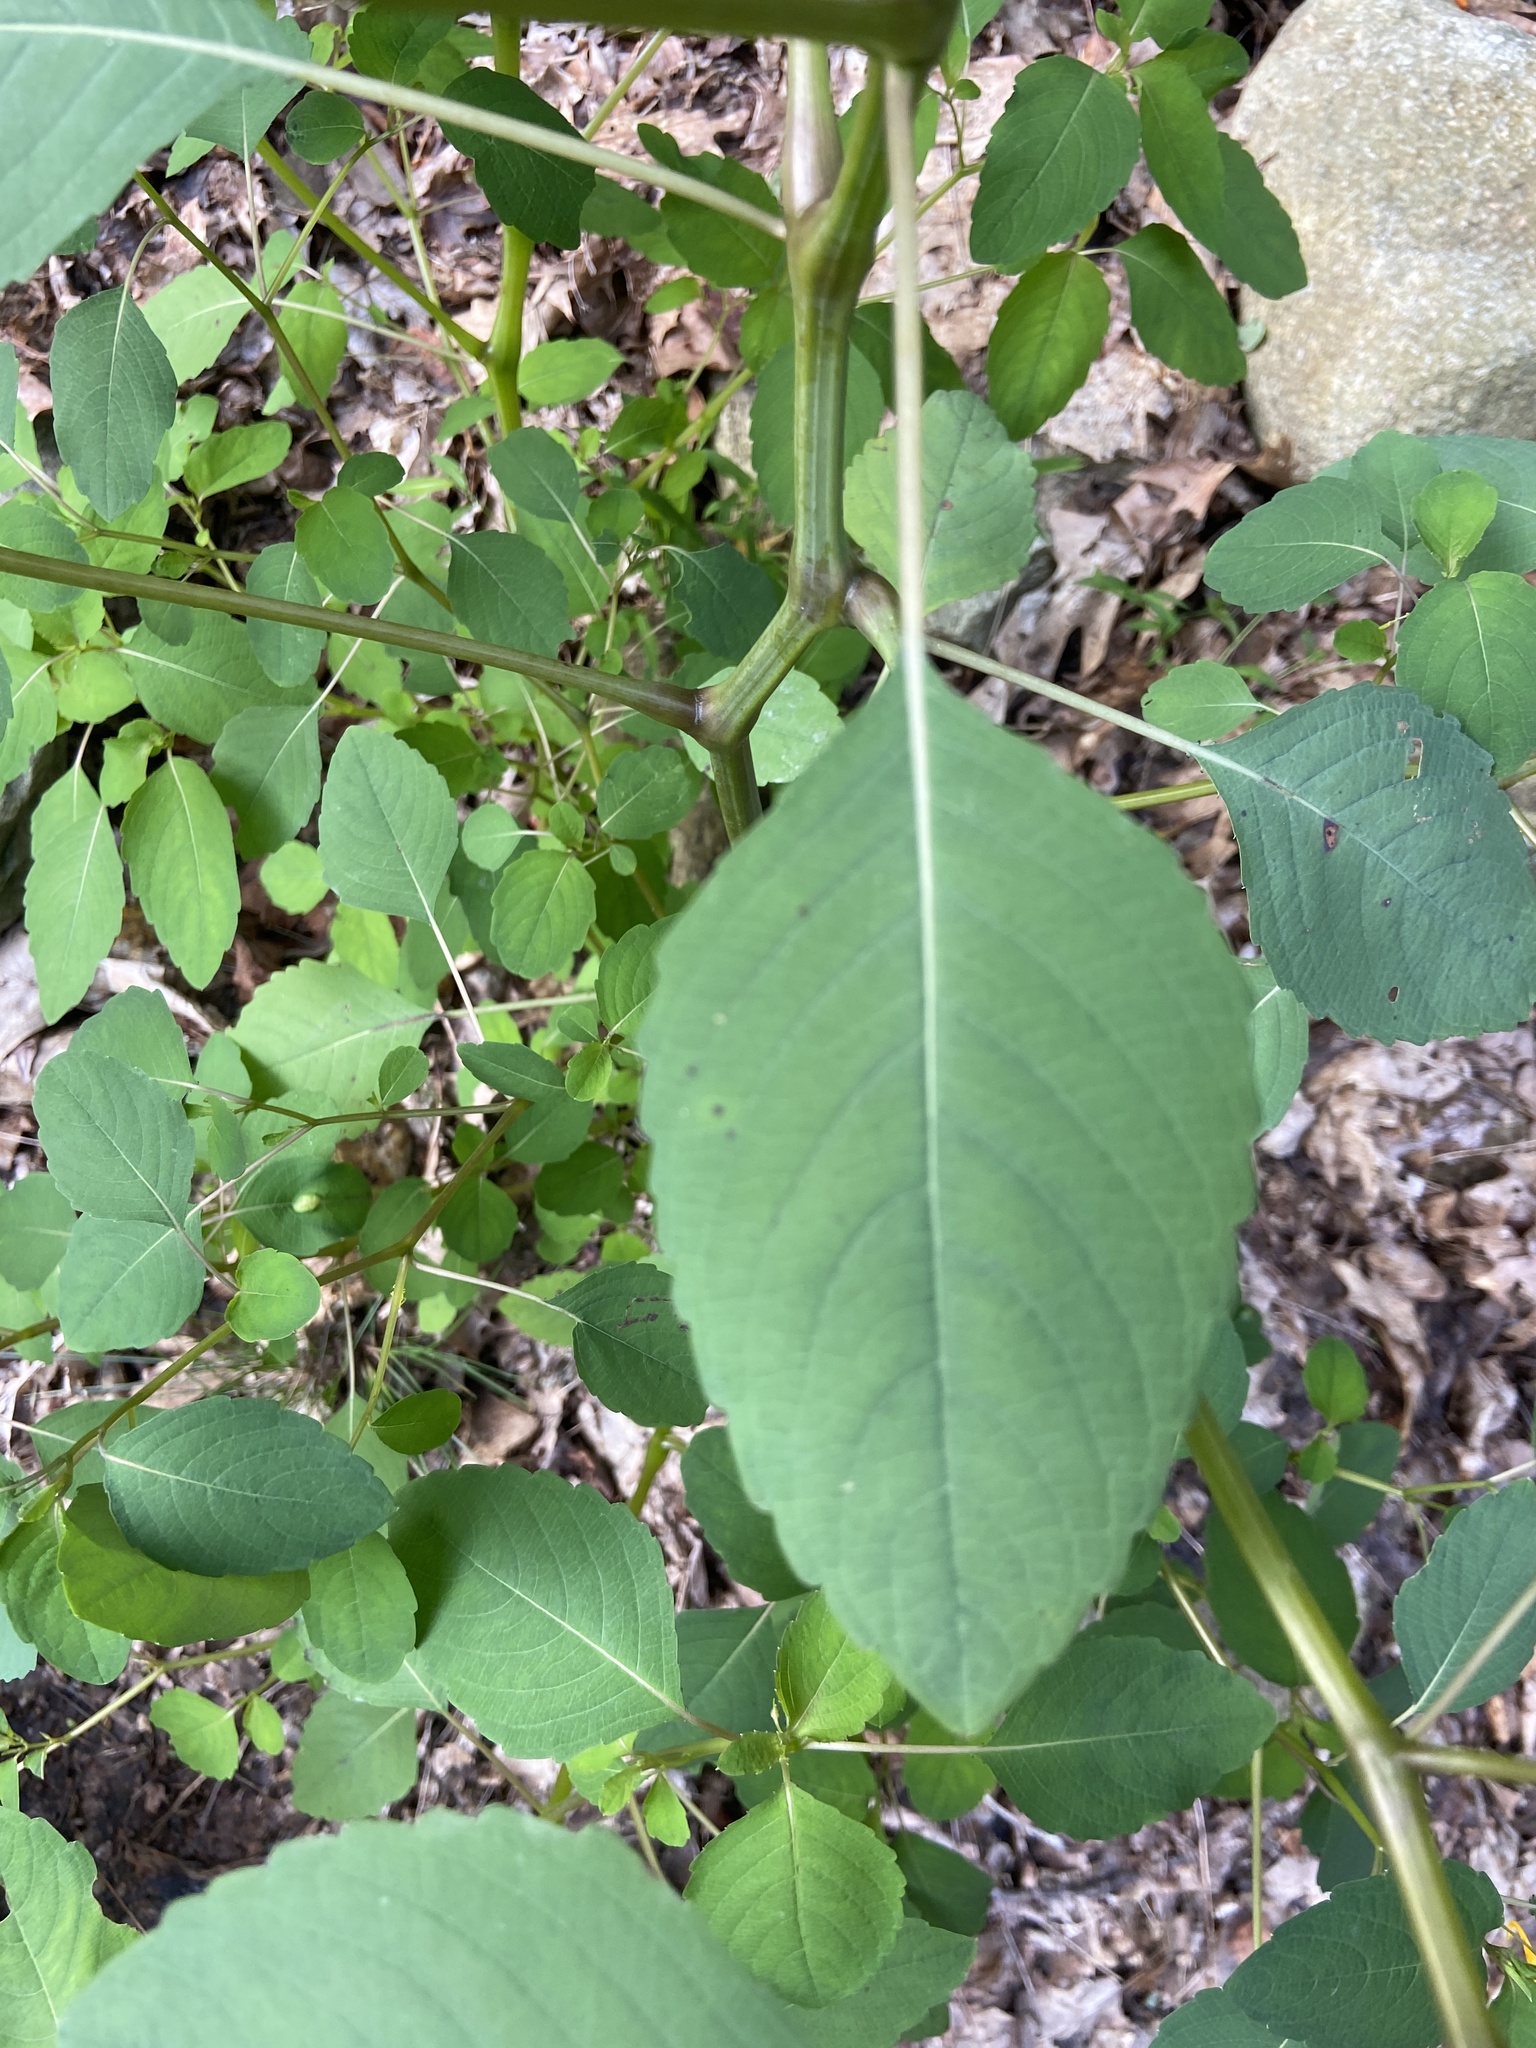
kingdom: Plantae
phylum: Tracheophyta
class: Magnoliopsida
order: Ericales
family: Balsaminaceae
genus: Impatiens
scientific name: Impatiens capensis
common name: Orange balsam
